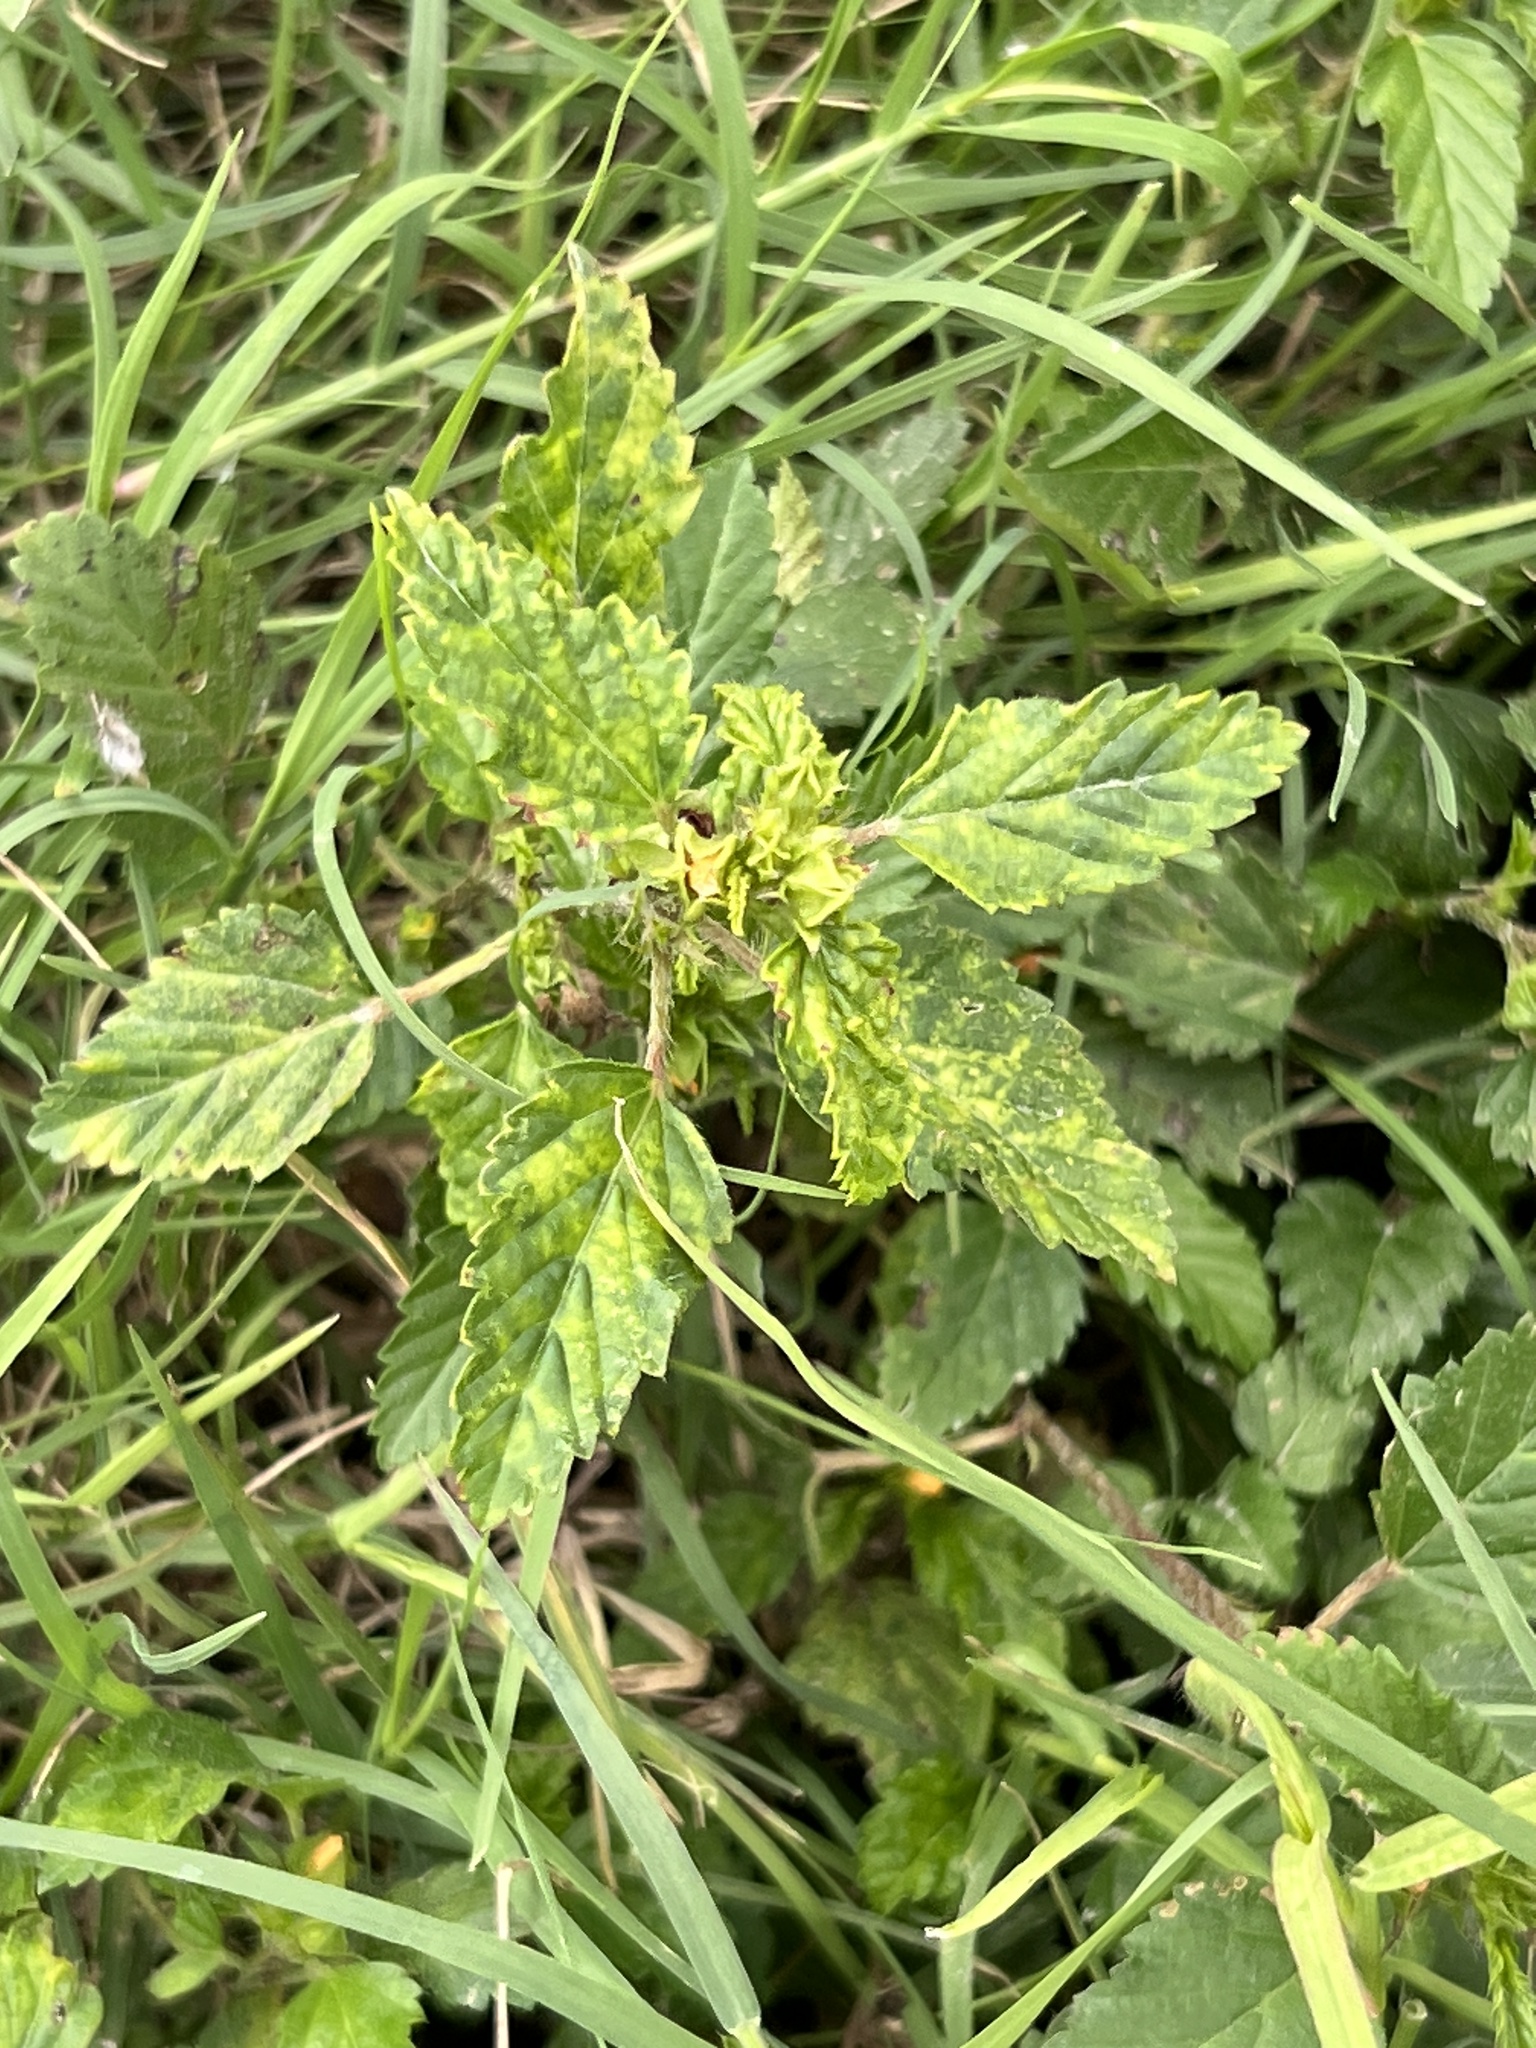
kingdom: Plantae
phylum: Tracheophyta
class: Magnoliopsida
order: Malvales
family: Malvaceae
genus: Malvastrum
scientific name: Malvastrum coromandelianum
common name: Threelobe false mallow
